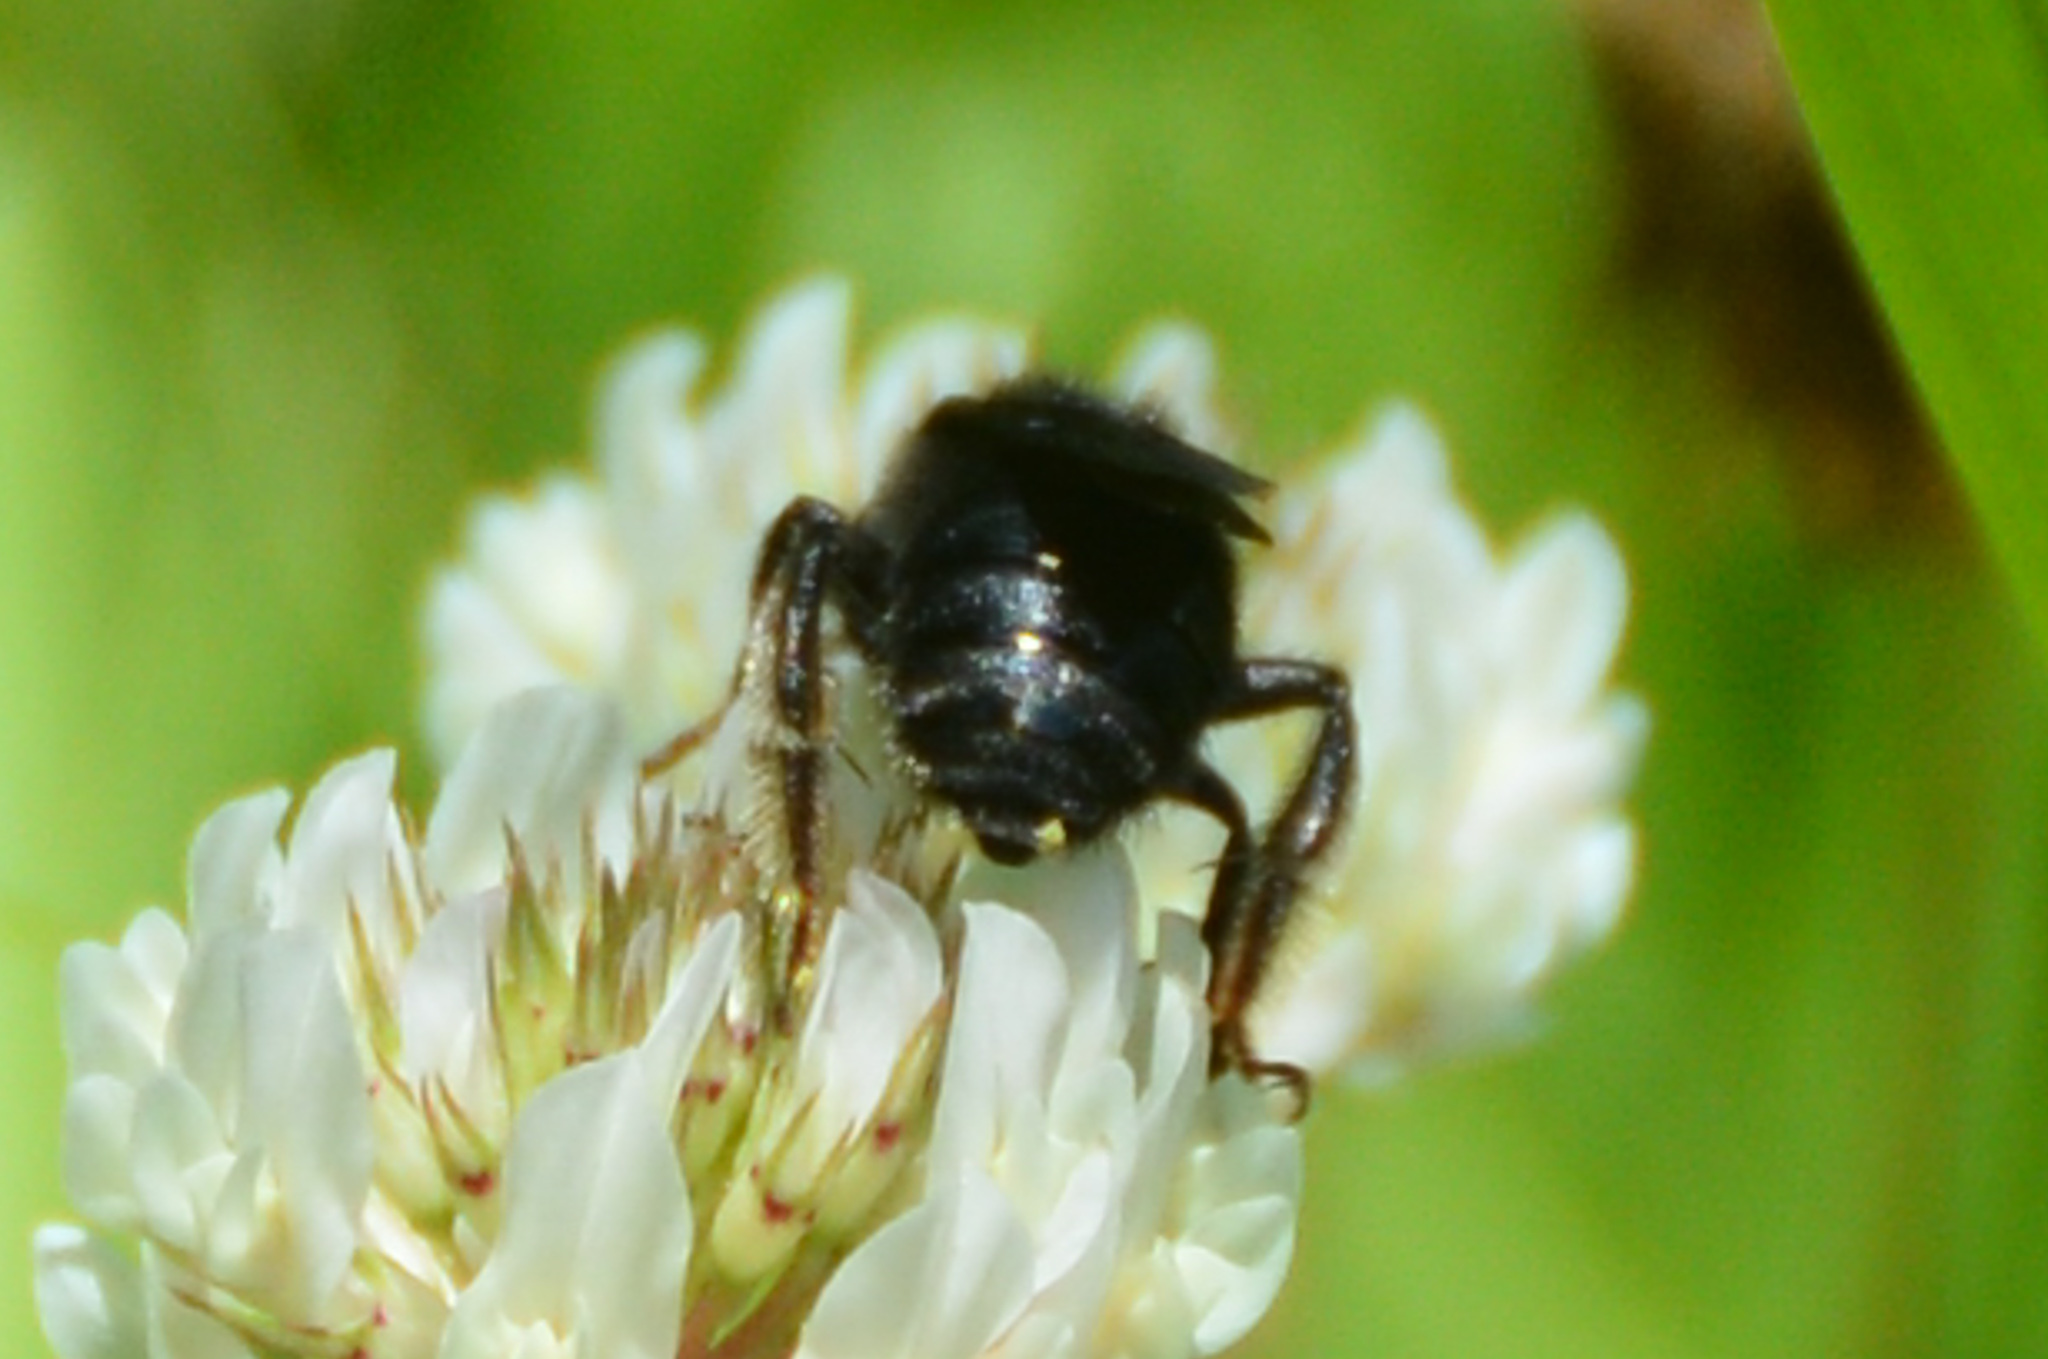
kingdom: Animalia
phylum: Arthropoda
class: Insecta
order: Hymenoptera
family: Apidae
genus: Melissodes
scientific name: Melissodes bimaculatus
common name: Two-spotted long-horned bee
